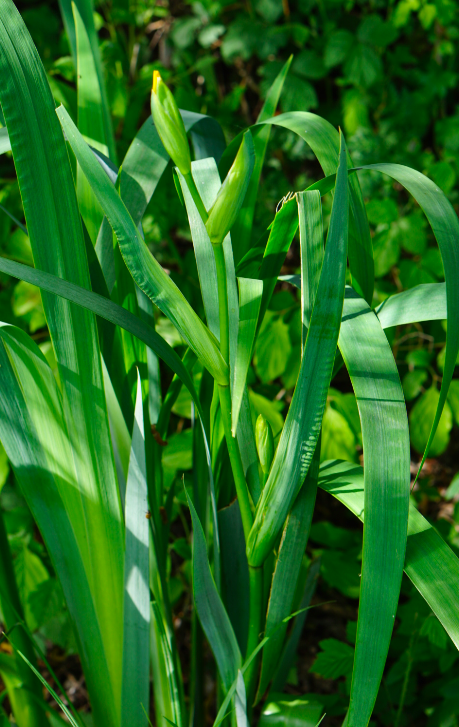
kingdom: Plantae
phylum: Tracheophyta
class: Liliopsida
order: Asparagales
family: Iridaceae
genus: Iris
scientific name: Iris pseudacorus
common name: Yellow flag
